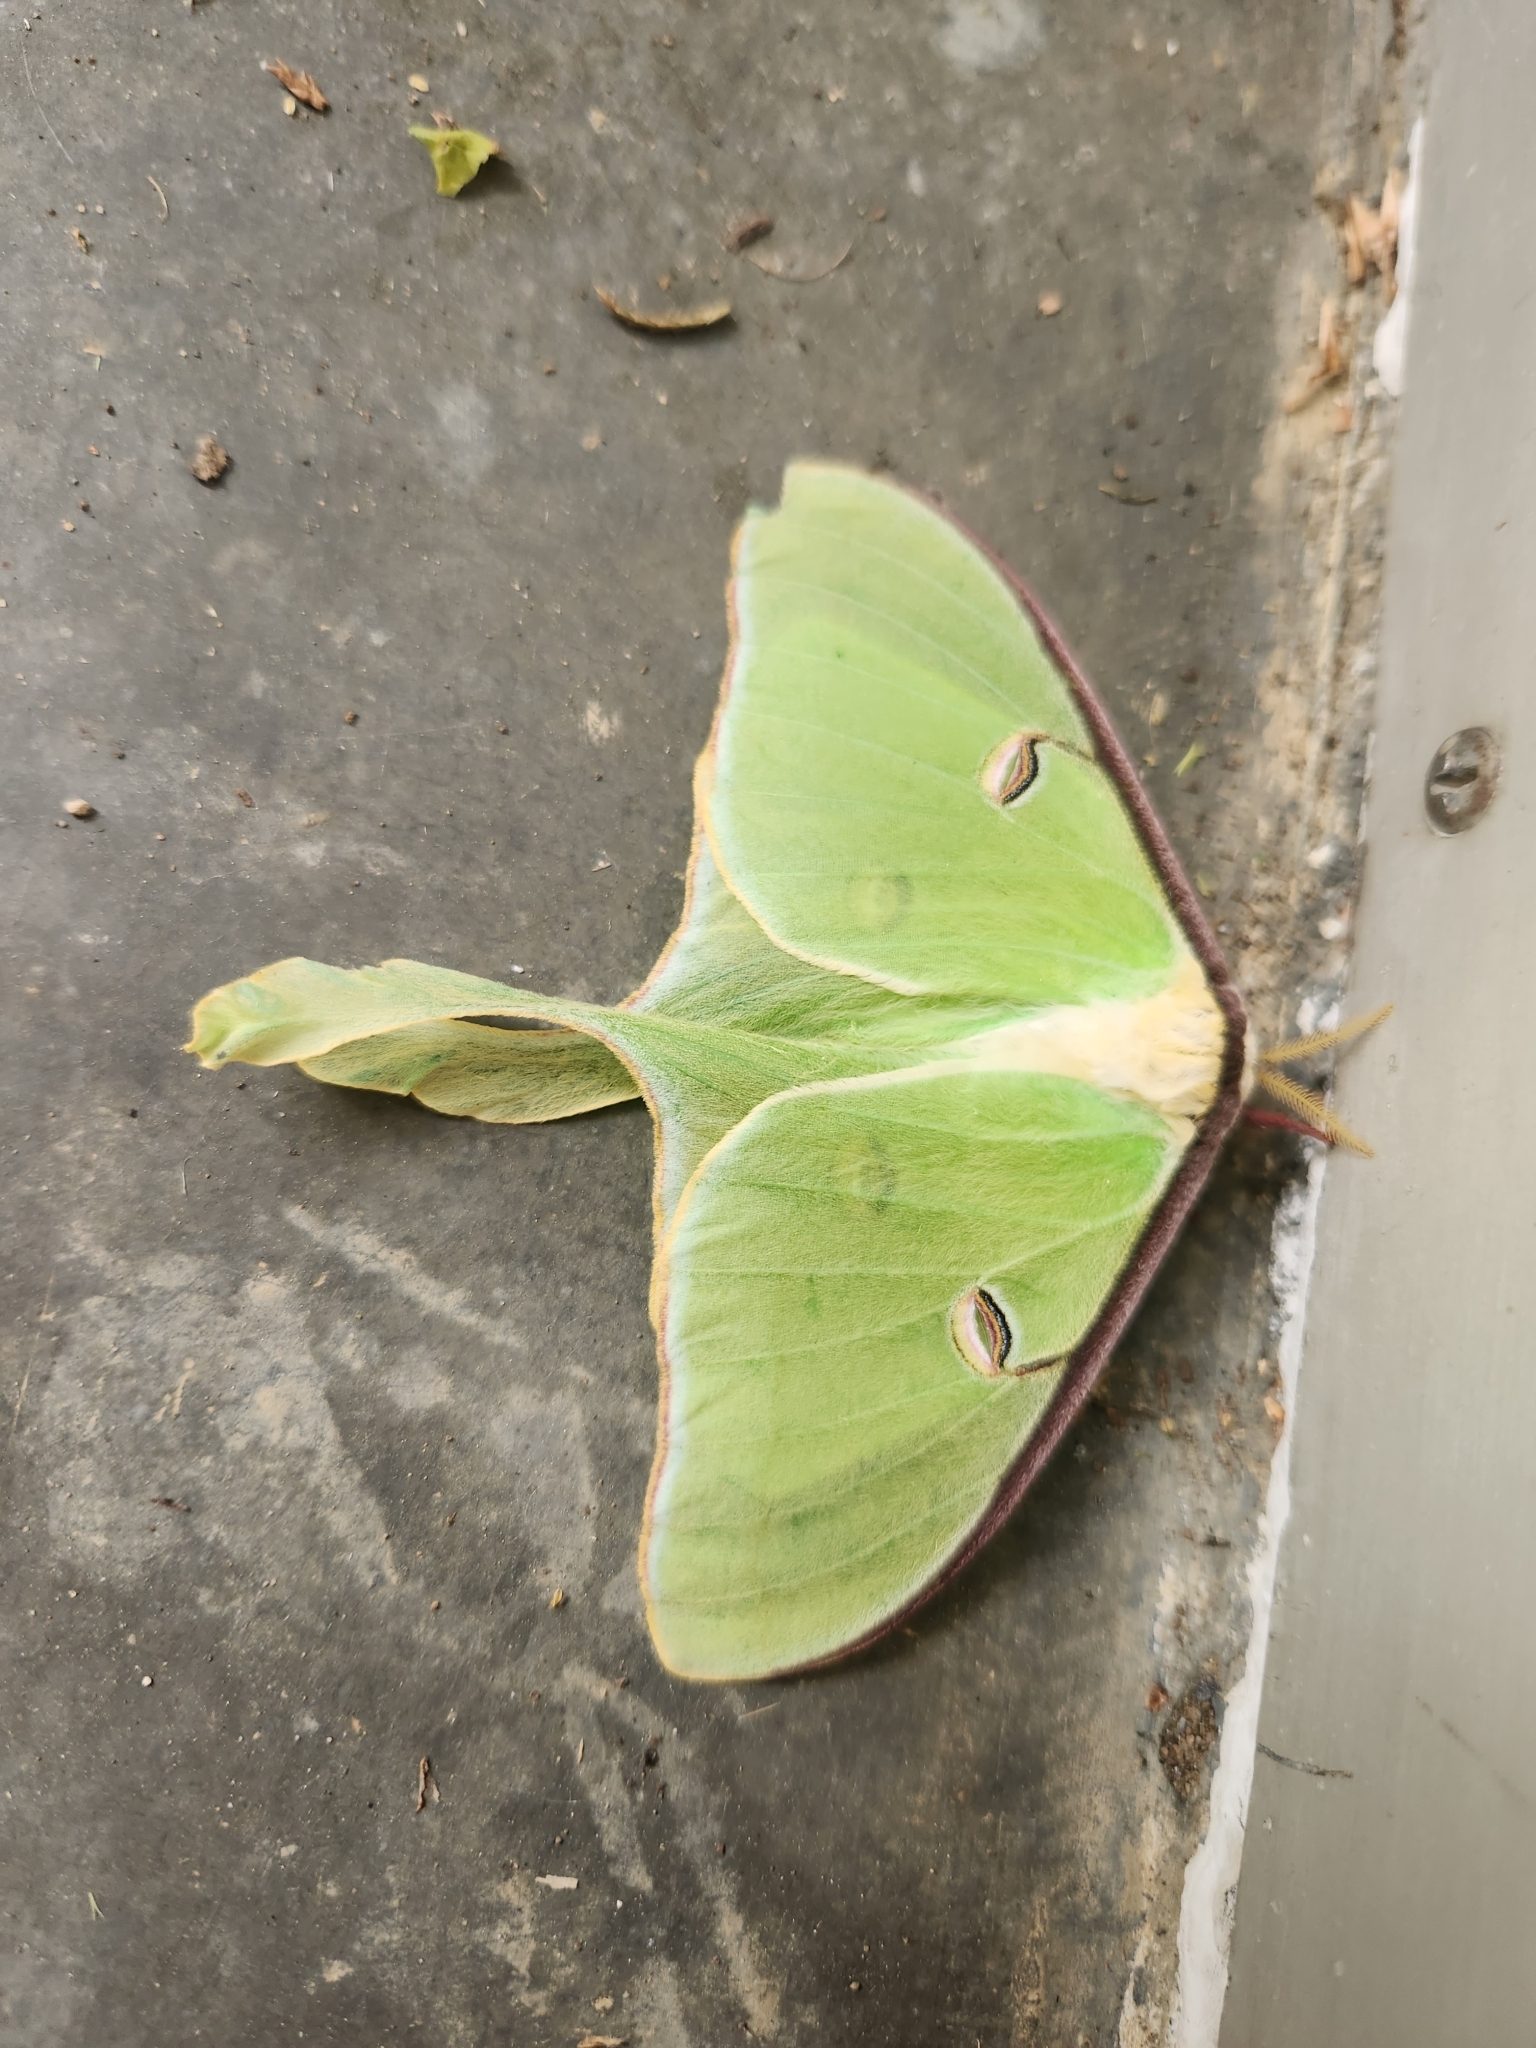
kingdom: Animalia
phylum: Arthropoda
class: Insecta
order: Lepidoptera
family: Saturniidae
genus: Actias
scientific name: Actias luna
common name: Luna moth
